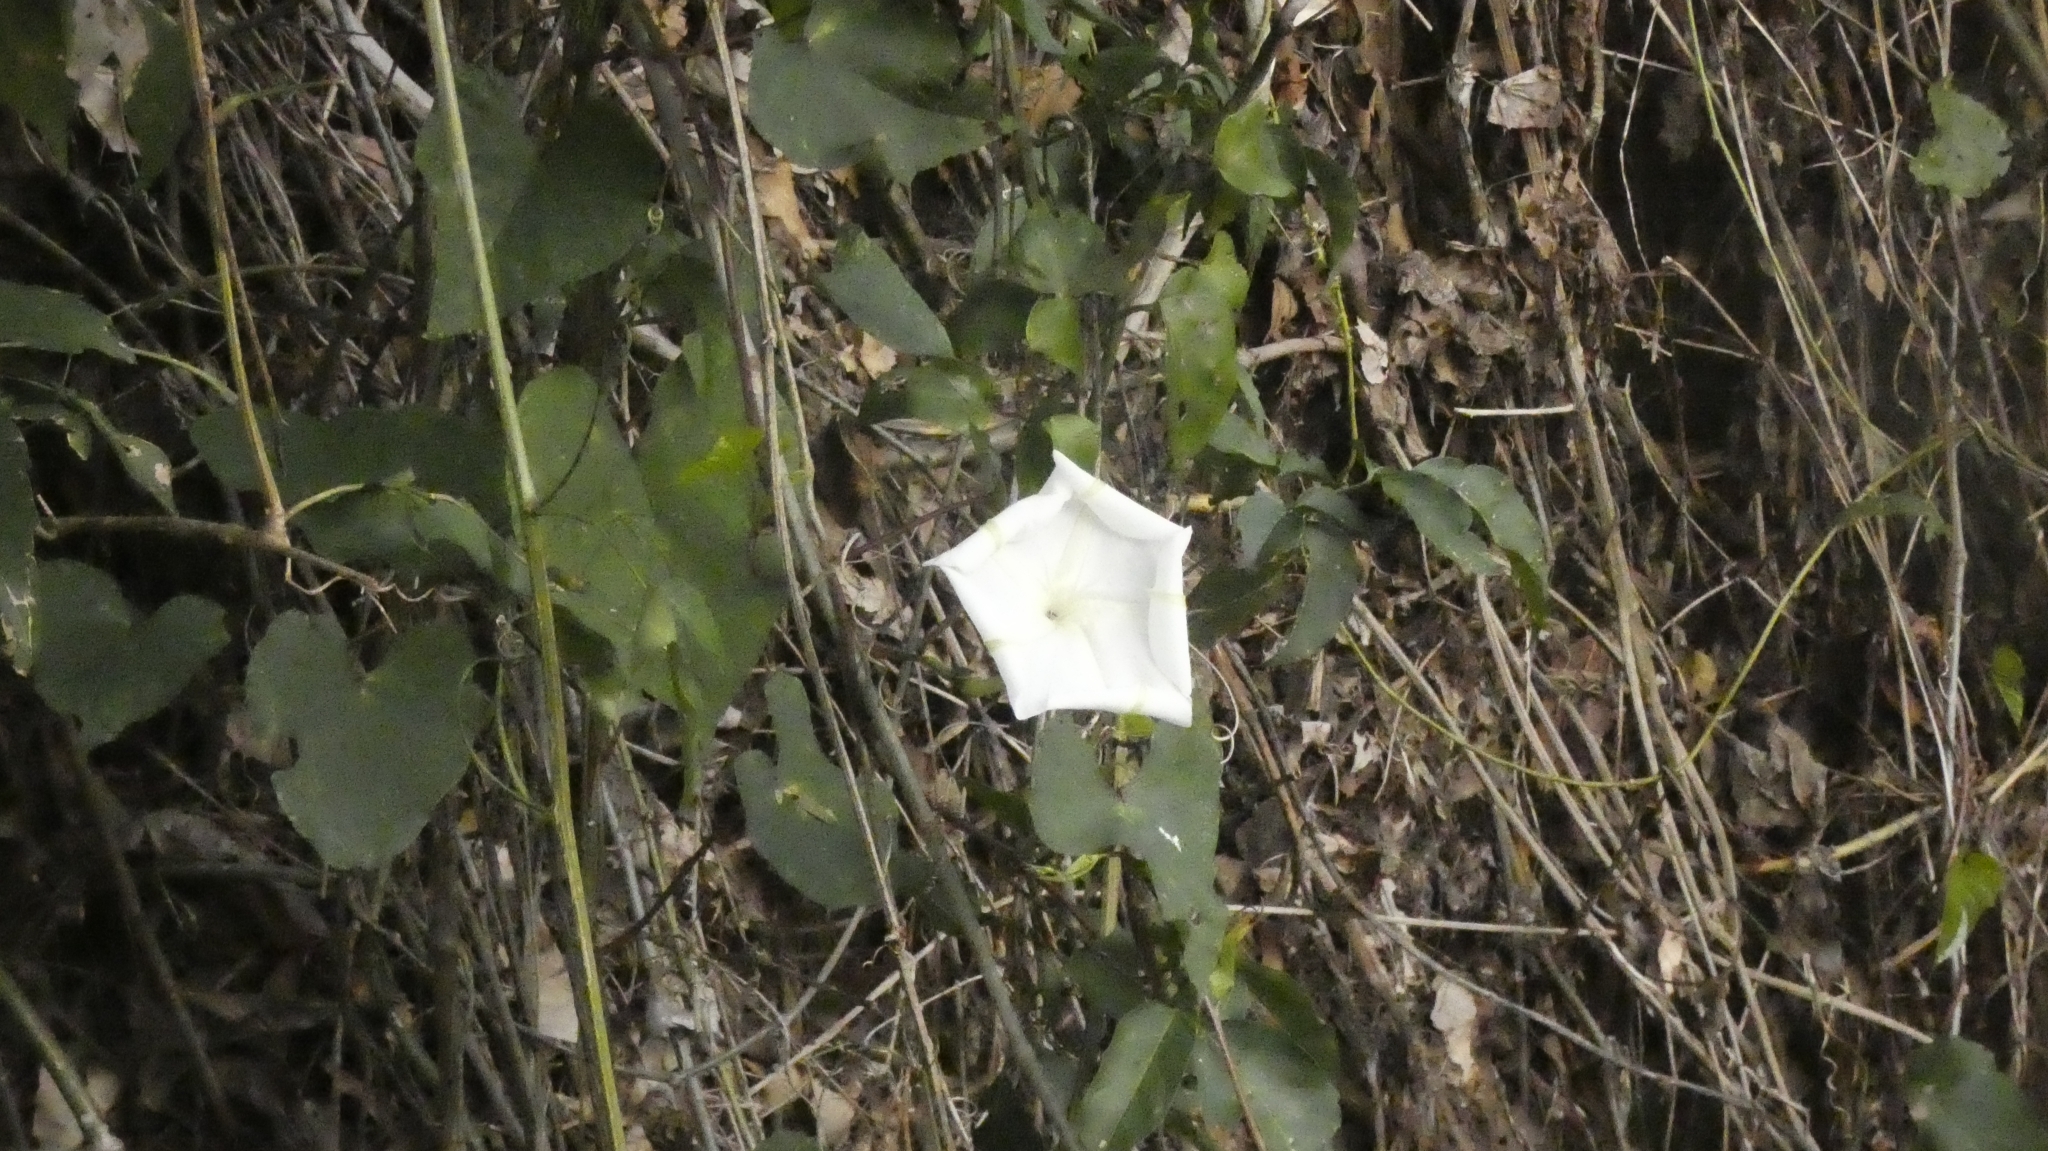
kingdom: Plantae
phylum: Tracheophyta
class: Magnoliopsida
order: Solanales
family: Convolvulaceae
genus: Ipomoea
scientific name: Ipomoea alba
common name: Moonflower
